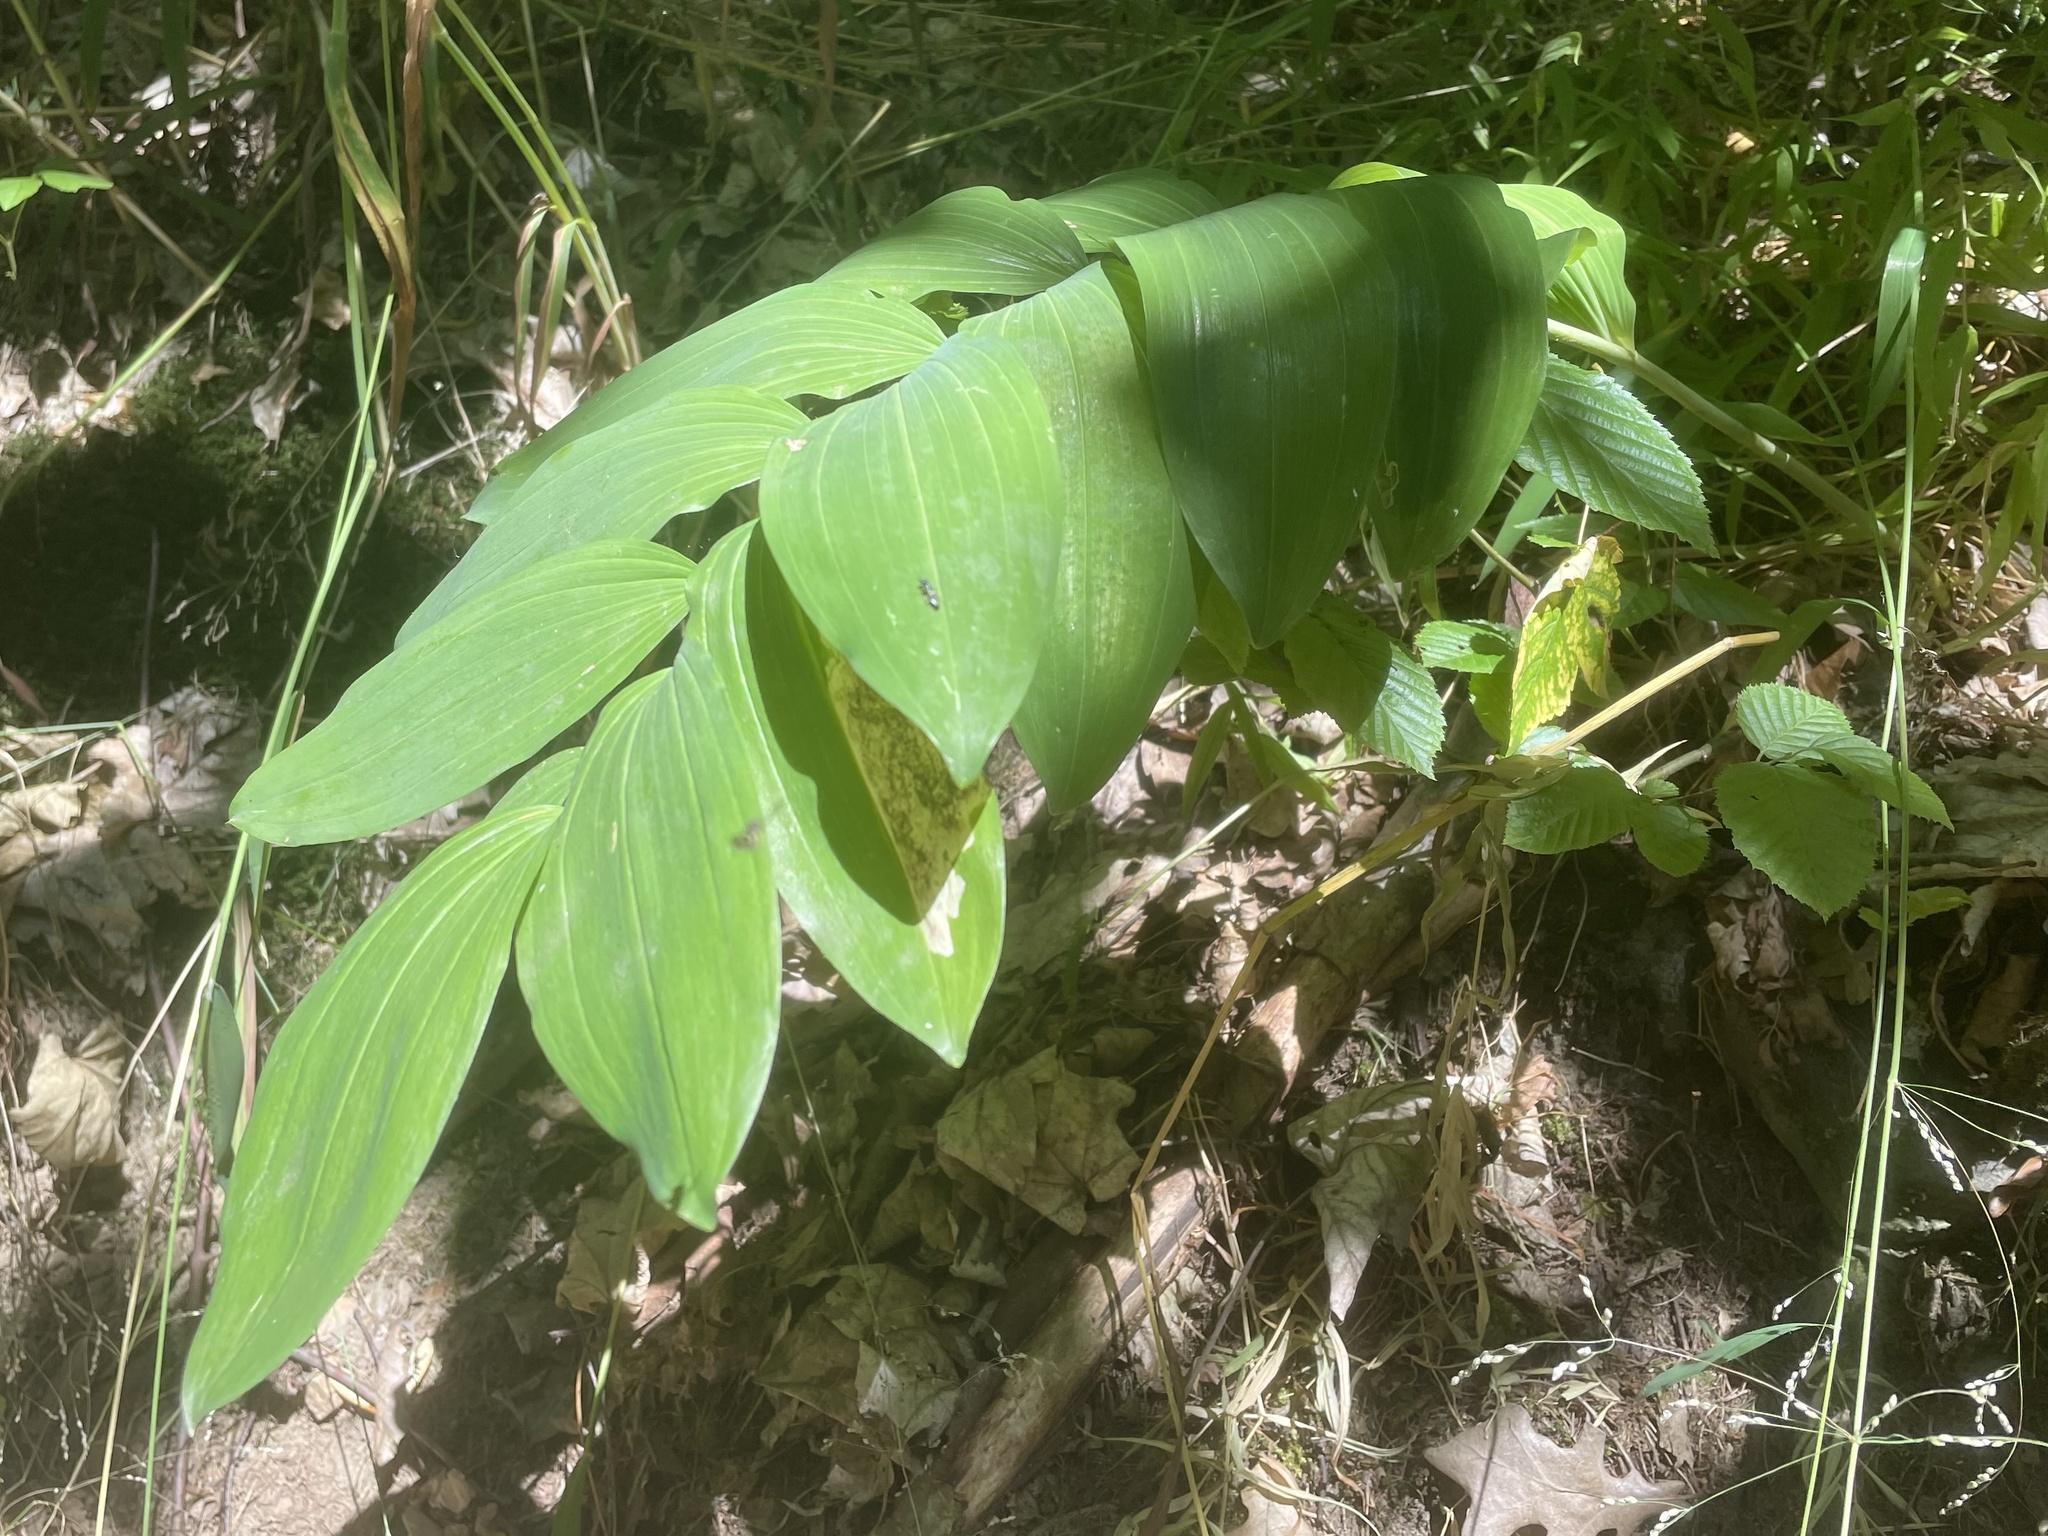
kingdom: Plantae
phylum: Tracheophyta
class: Liliopsida
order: Asparagales
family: Asparagaceae
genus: Polygonatum
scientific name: Polygonatum multiflorum
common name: Solomon's-seal
